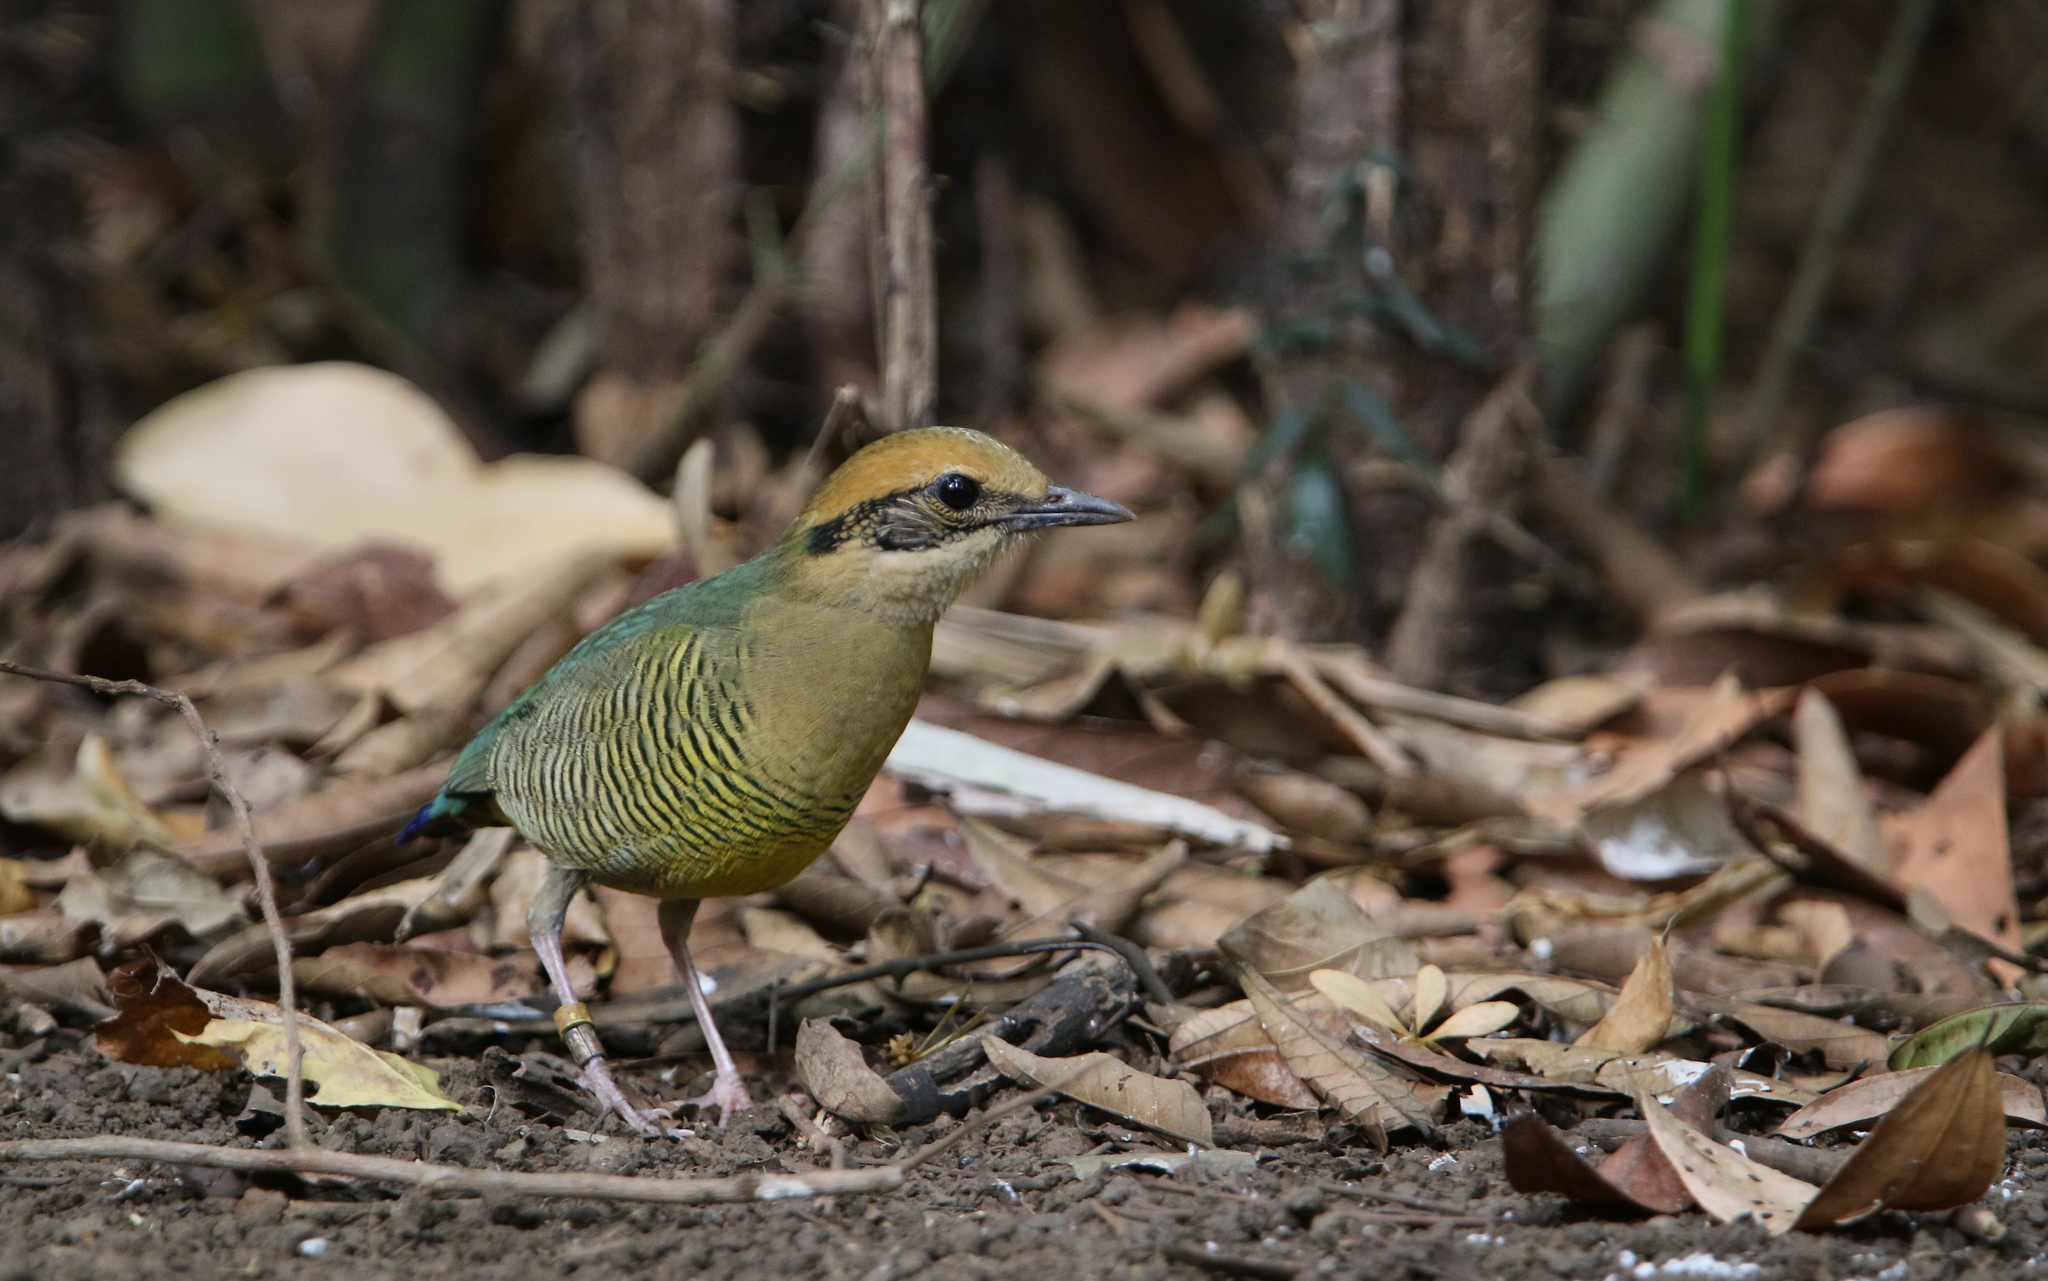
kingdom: Animalia
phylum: Chordata
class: Aves
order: Passeriformes
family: Pittidae
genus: Pitta
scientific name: Pitta elliotii
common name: Bar-bellied pitta
